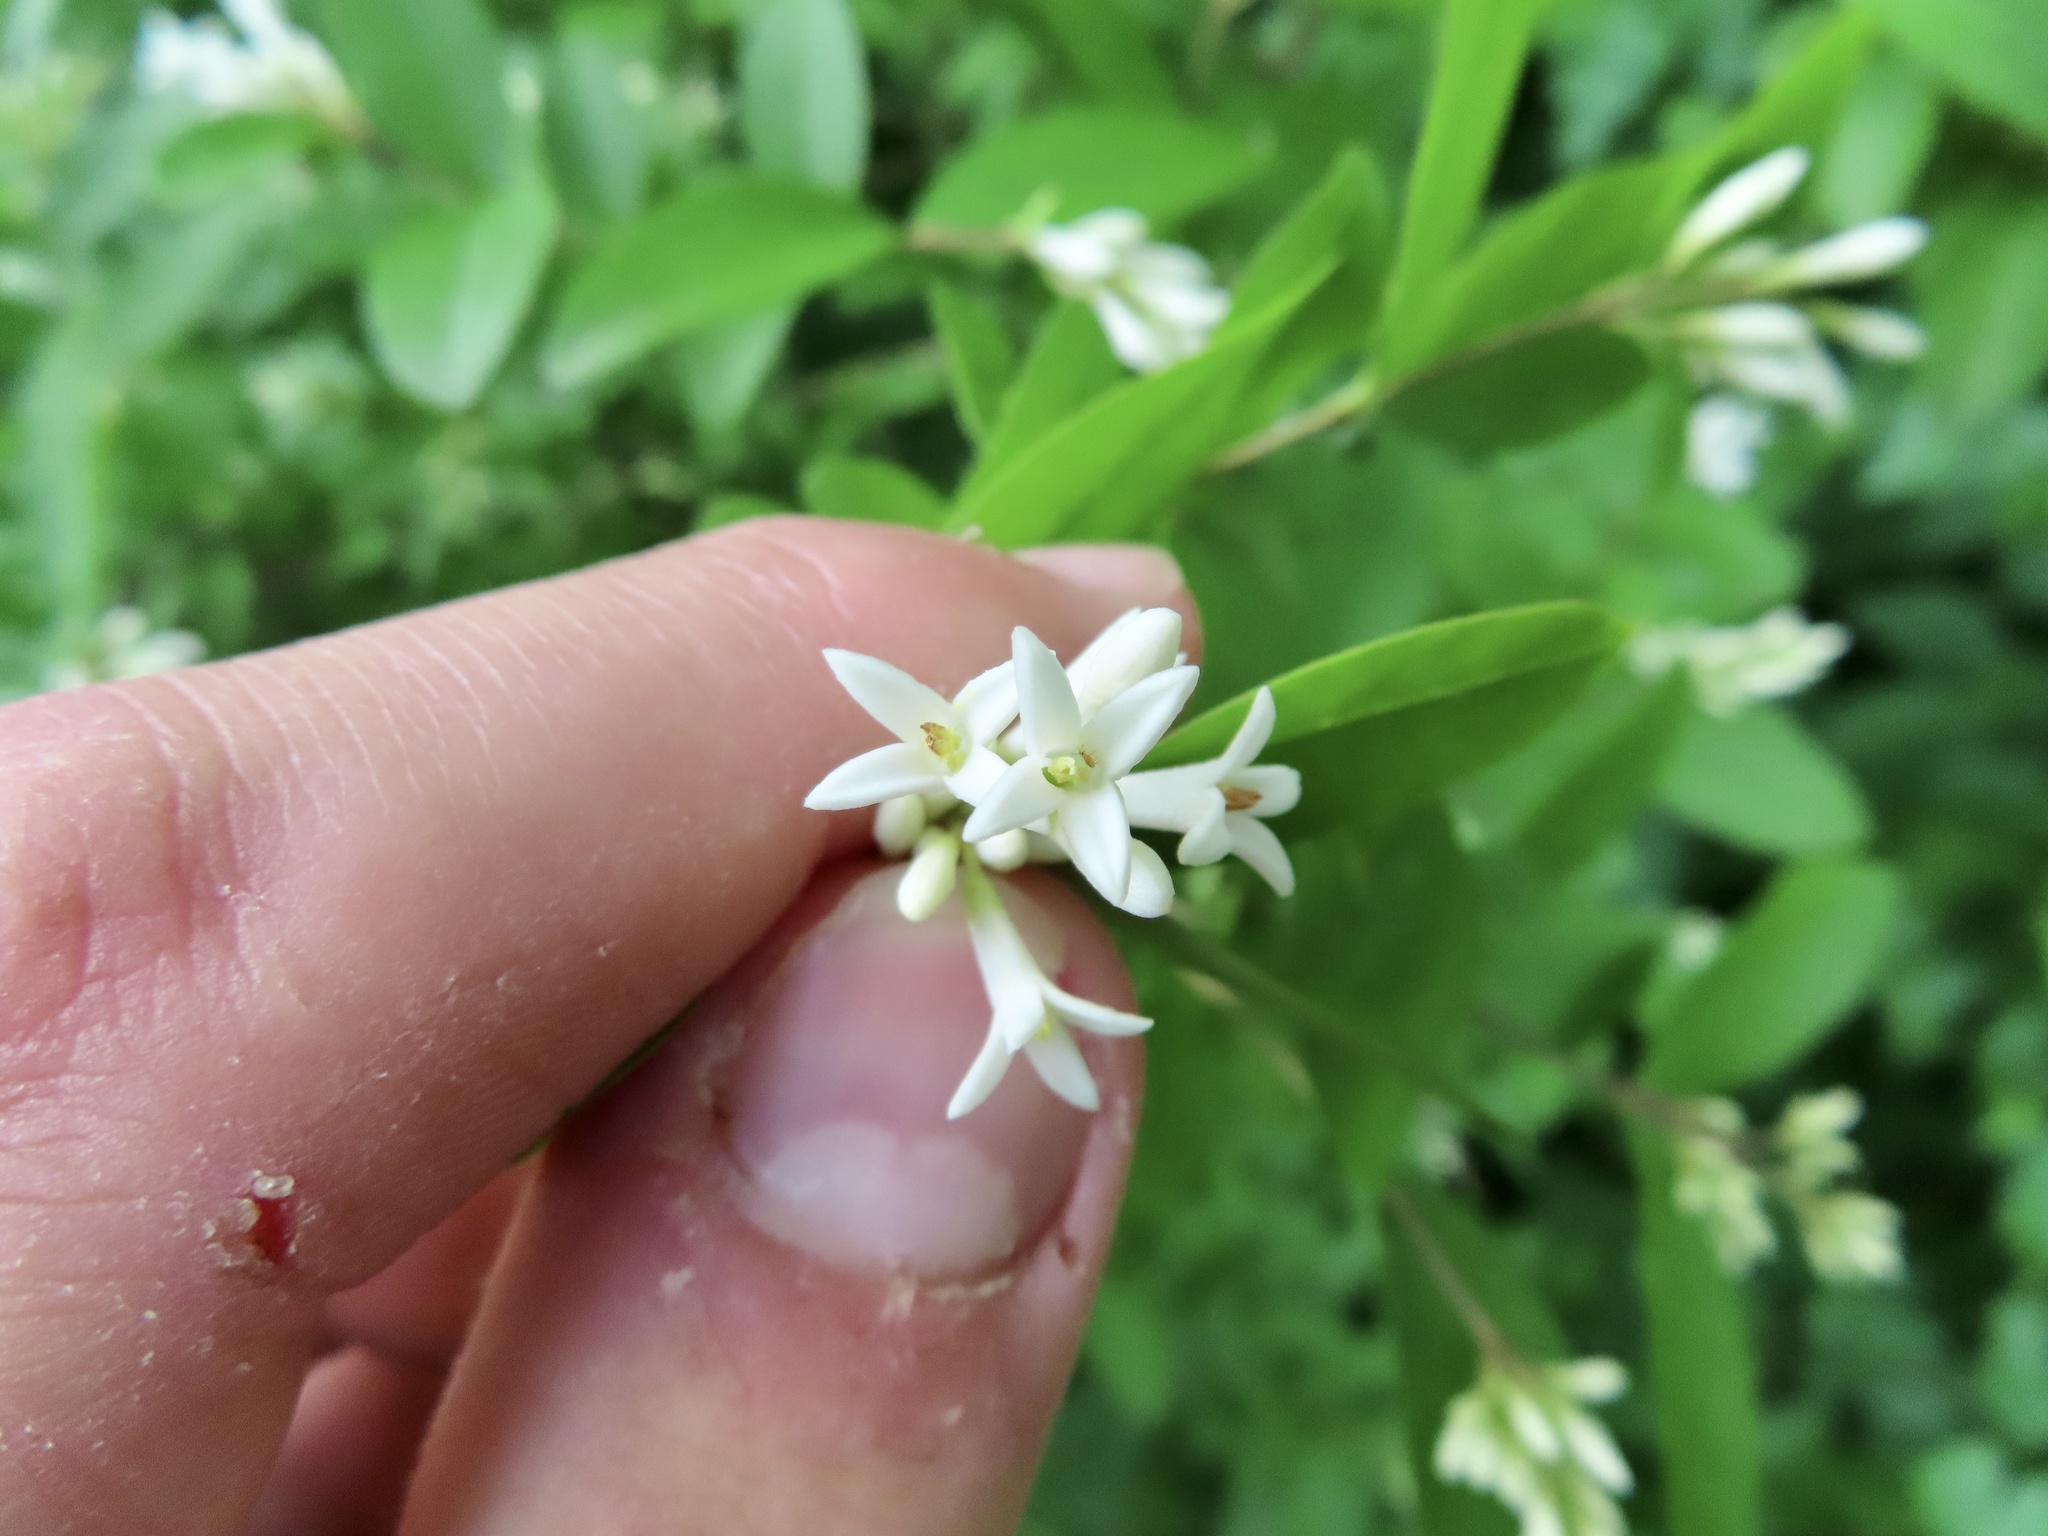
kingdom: Plantae
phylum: Tracheophyta
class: Magnoliopsida
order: Lamiales
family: Oleaceae
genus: Ligustrum
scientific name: Ligustrum obtusifolium
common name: Border privet
